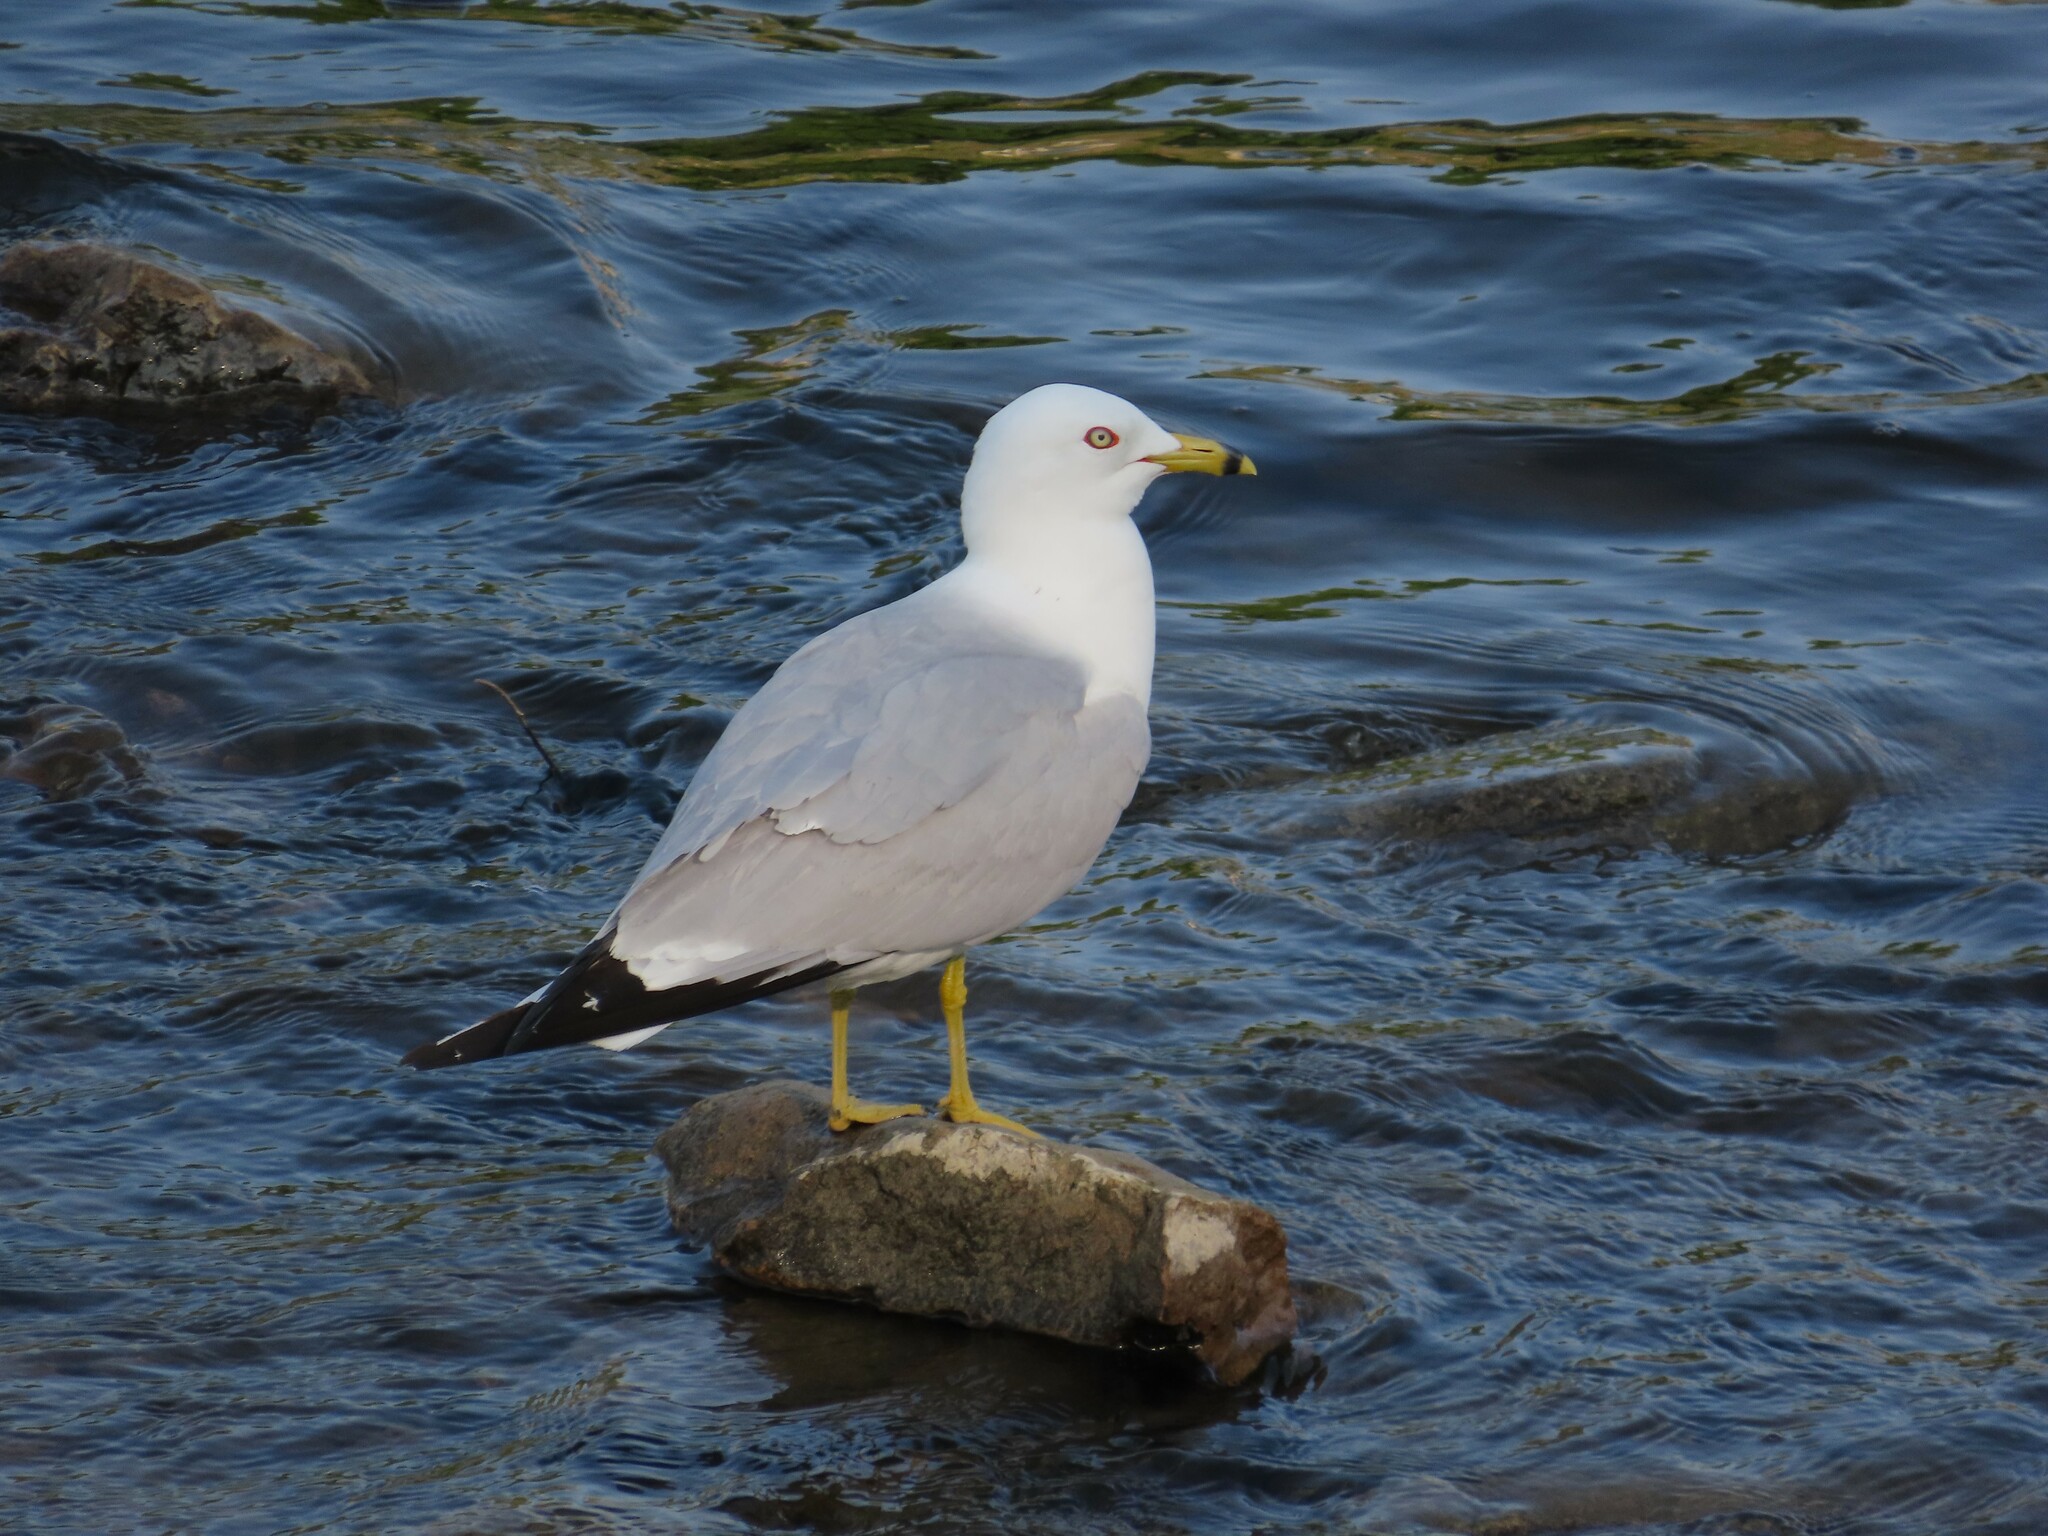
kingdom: Animalia
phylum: Chordata
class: Aves
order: Charadriiformes
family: Laridae
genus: Larus
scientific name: Larus delawarensis
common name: Ring-billed gull
